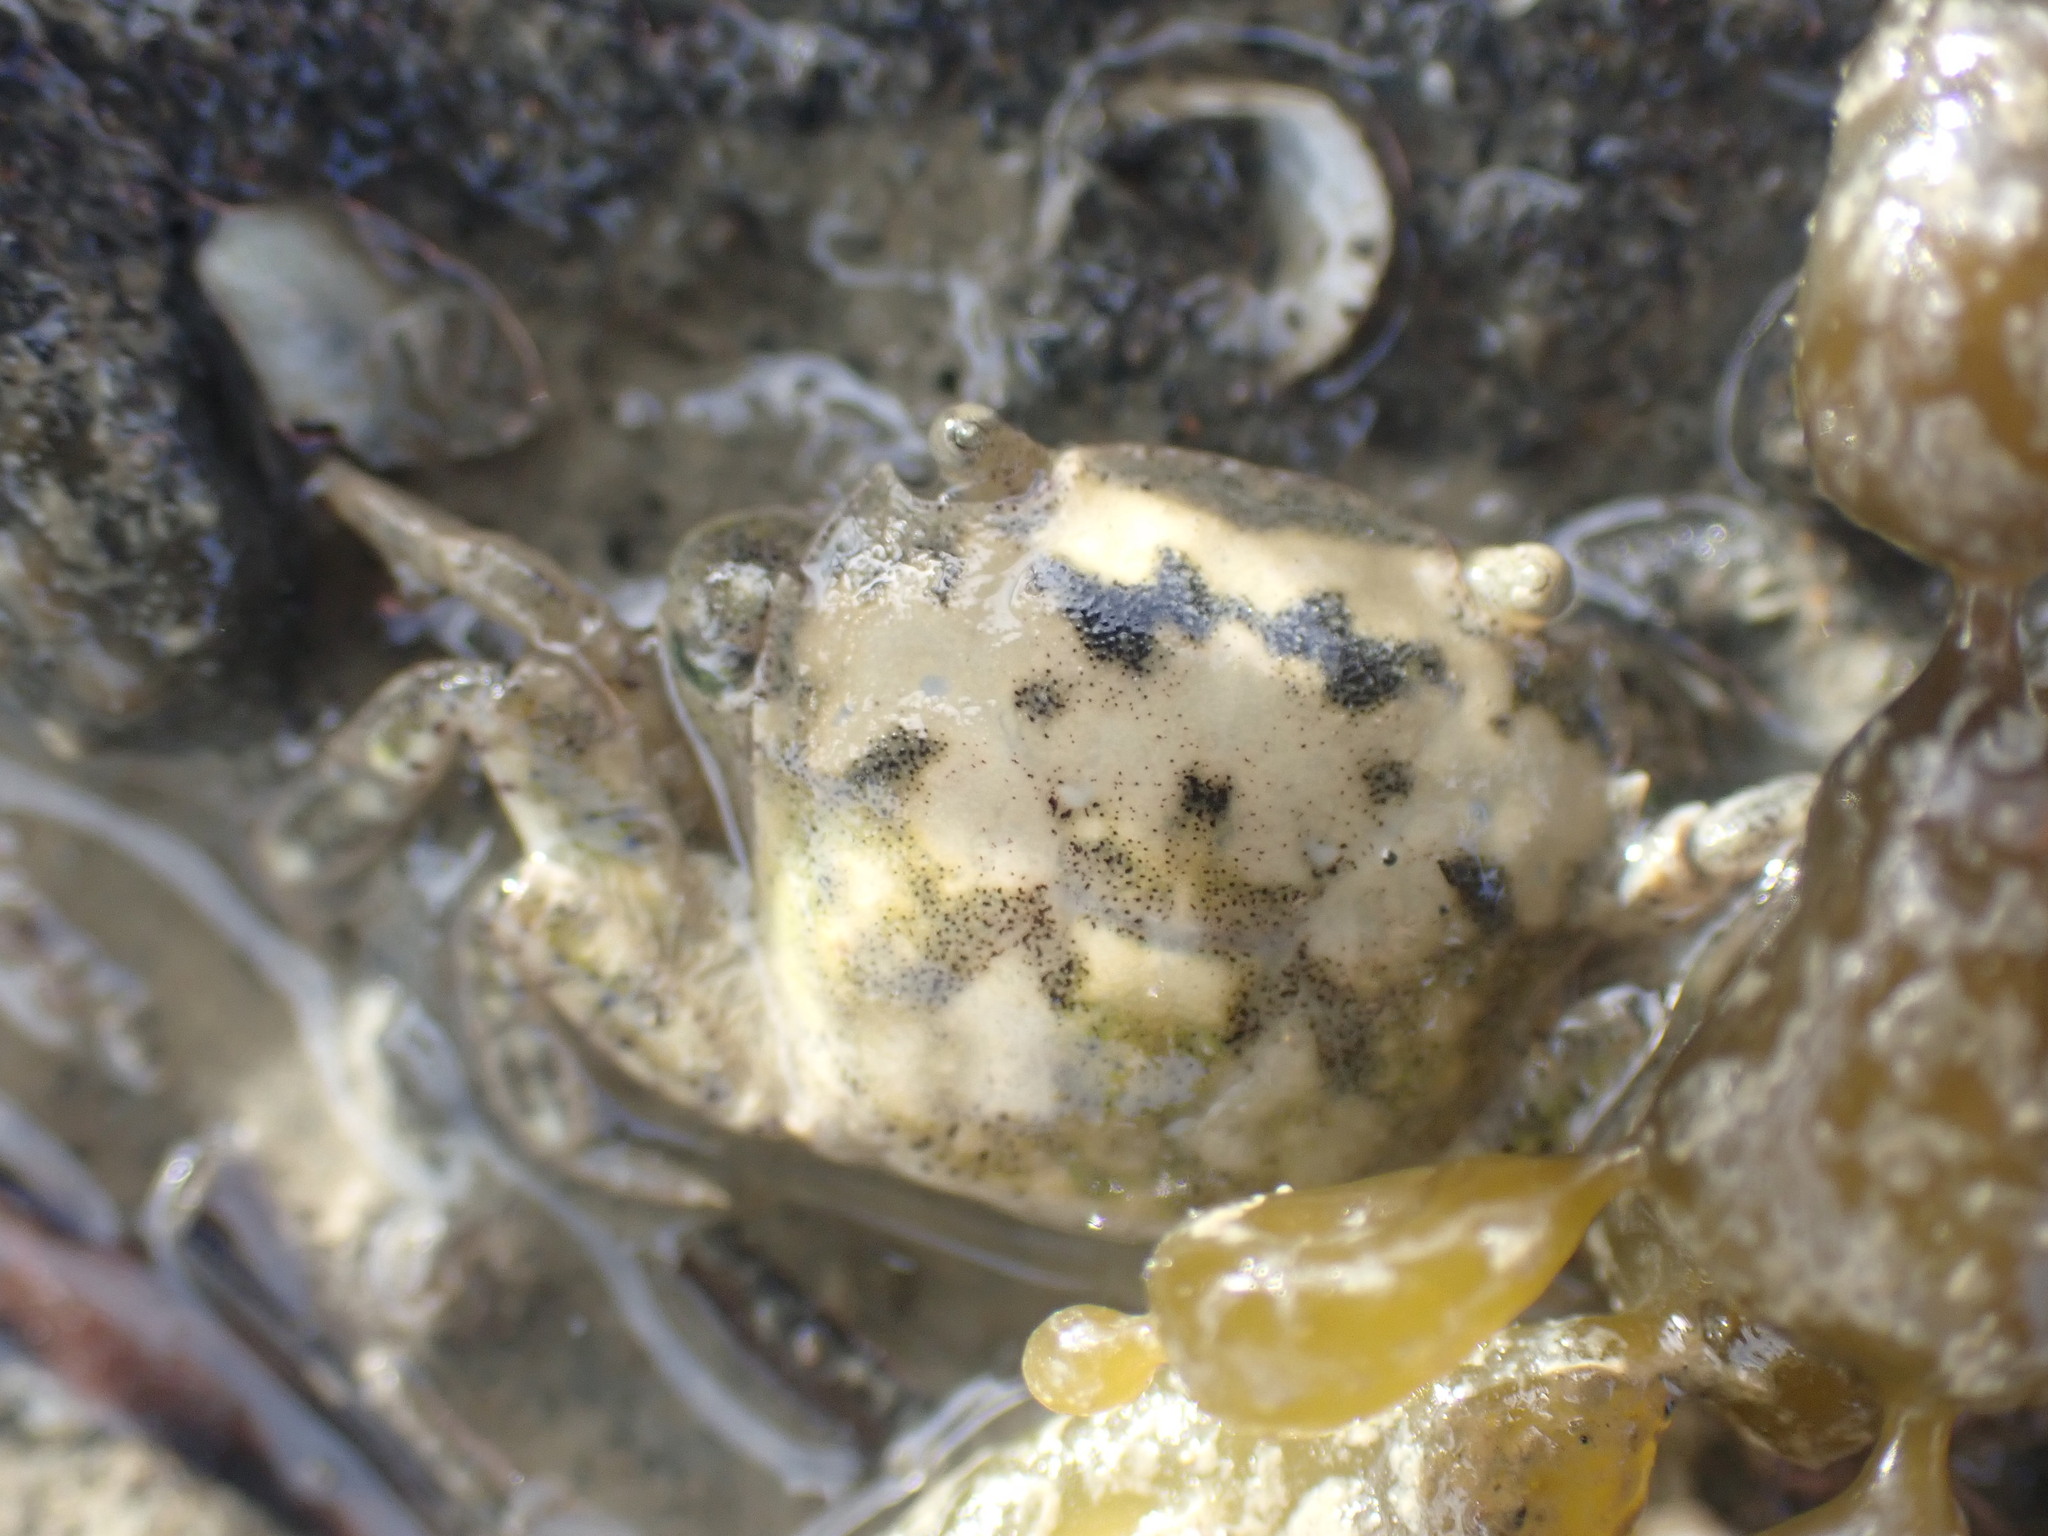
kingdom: Animalia
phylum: Arthropoda
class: Malacostraca
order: Decapoda
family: Varunidae
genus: Hemigrapsus
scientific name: Hemigrapsus crenulatus
